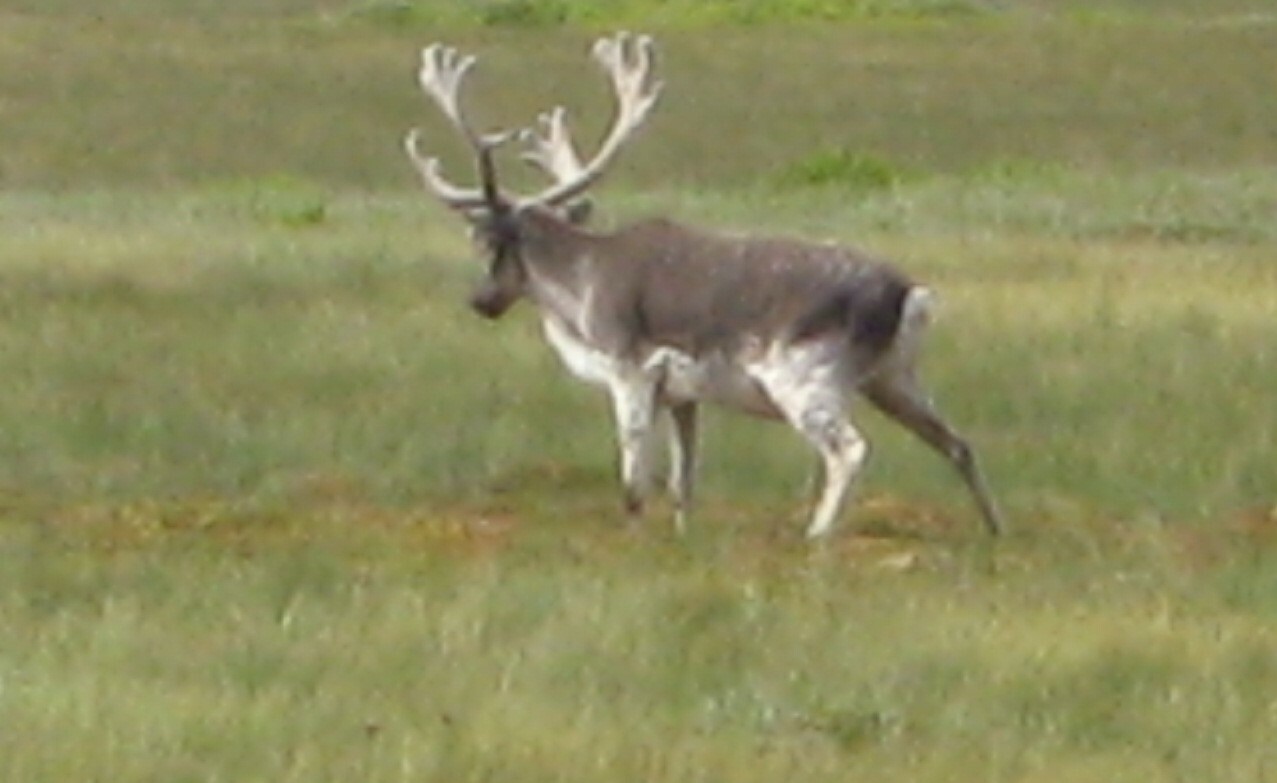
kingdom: Animalia
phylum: Chordata
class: Mammalia
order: Artiodactyla
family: Cervidae
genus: Rangifer
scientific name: Rangifer tarandus
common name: Reindeer
